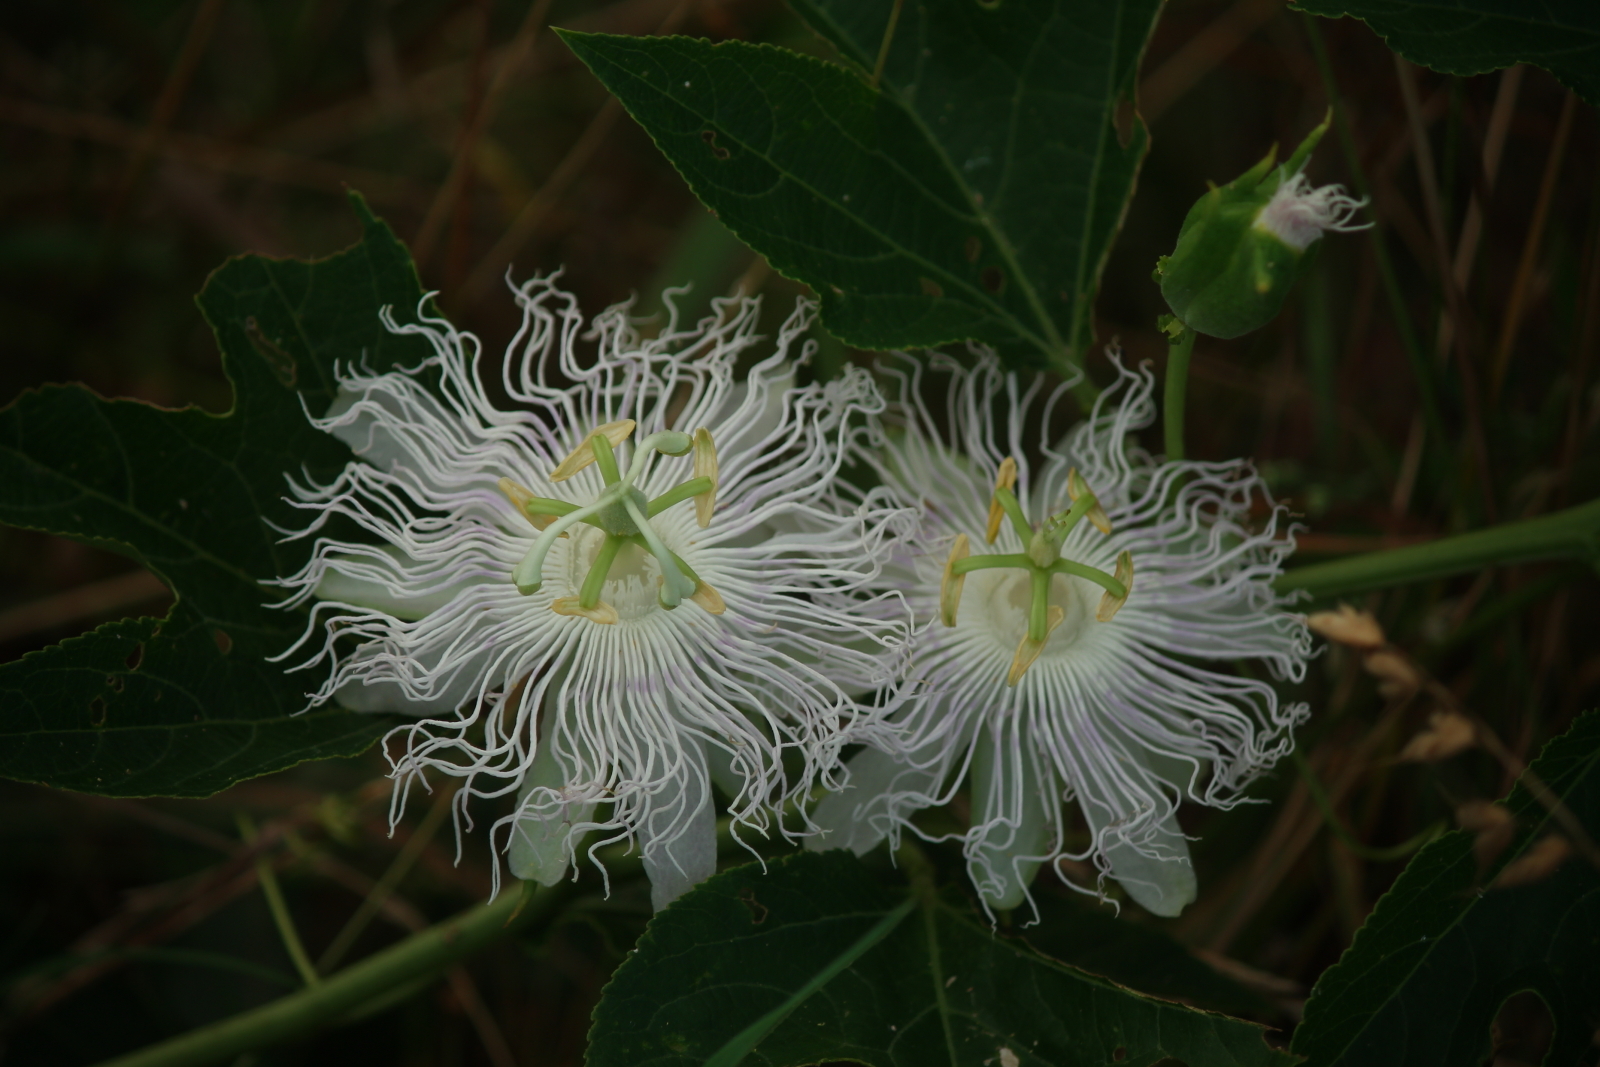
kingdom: Plantae
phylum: Tracheophyta
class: Magnoliopsida
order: Malpighiales
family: Passifloraceae
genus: Passiflora
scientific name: Passiflora incarnata
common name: Apricot-vine
